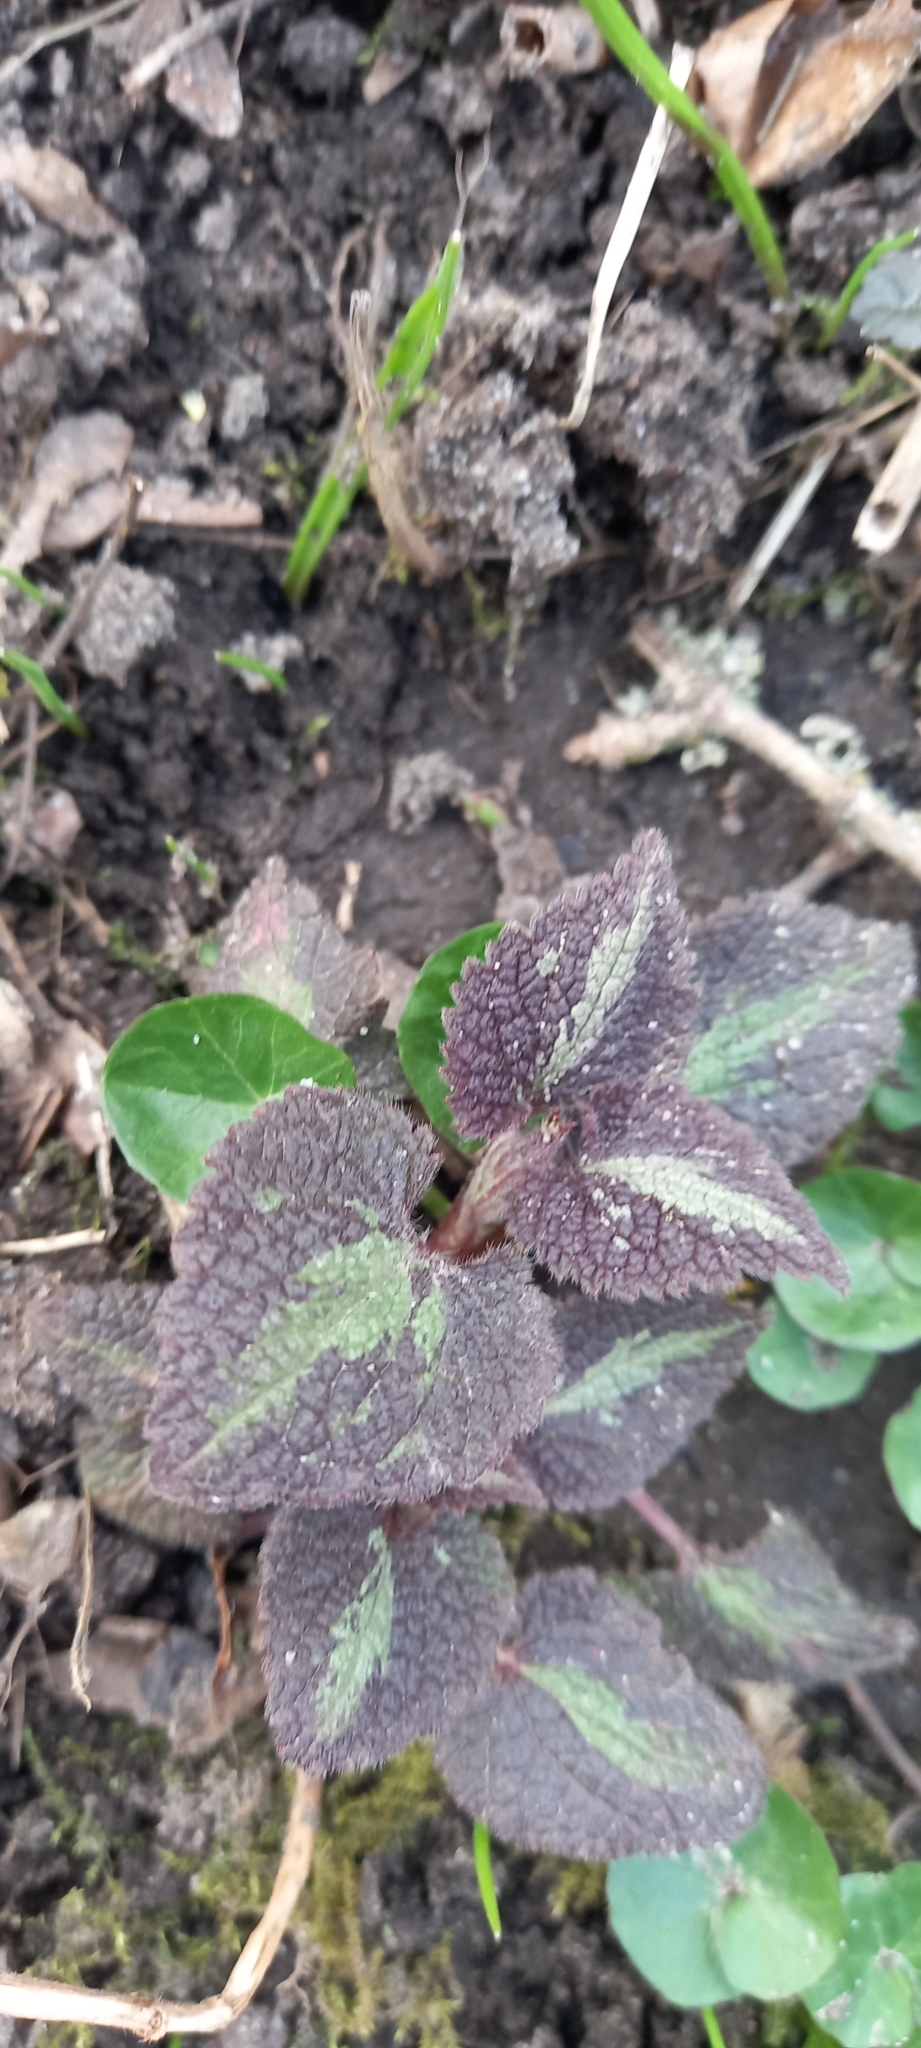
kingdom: Plantae
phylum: Tracheophyta
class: Magnoliopsida
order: Lamiales
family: Lamiaceae
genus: Lamium
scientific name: Lamium maculatum
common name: Spotted dead-nettle
